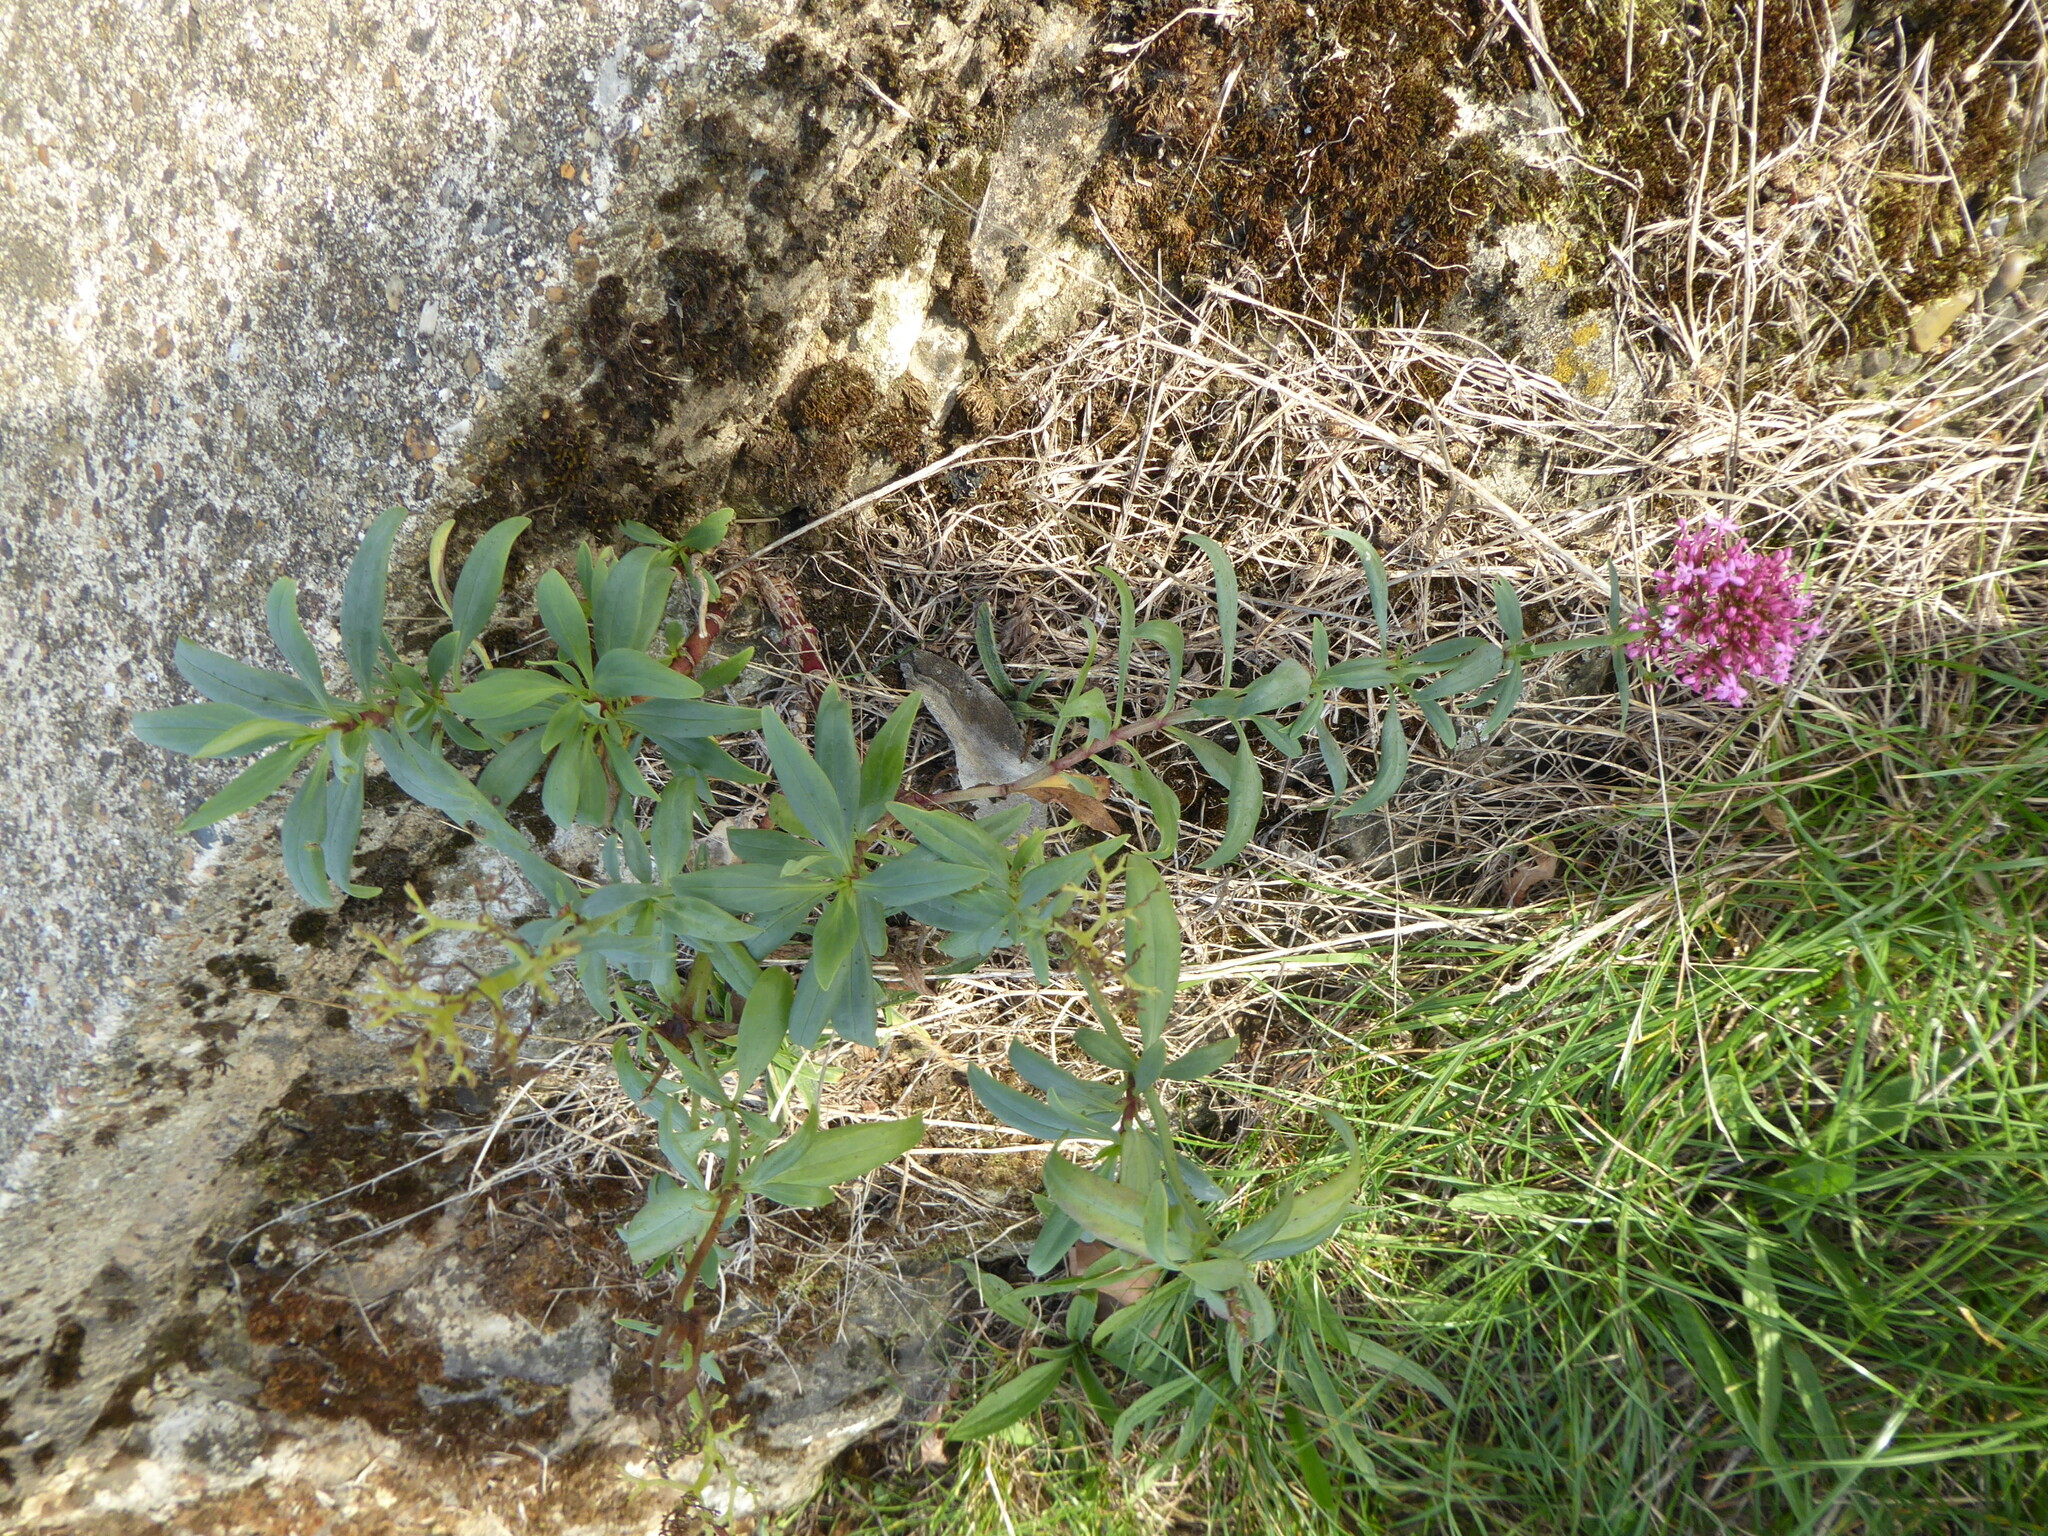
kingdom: Plantae
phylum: Tracheophyta
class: Magnoliopsida
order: Dipsacales
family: Caprifoliaceae
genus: Centranthus
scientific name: Centranthus ruber
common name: Red valerian
